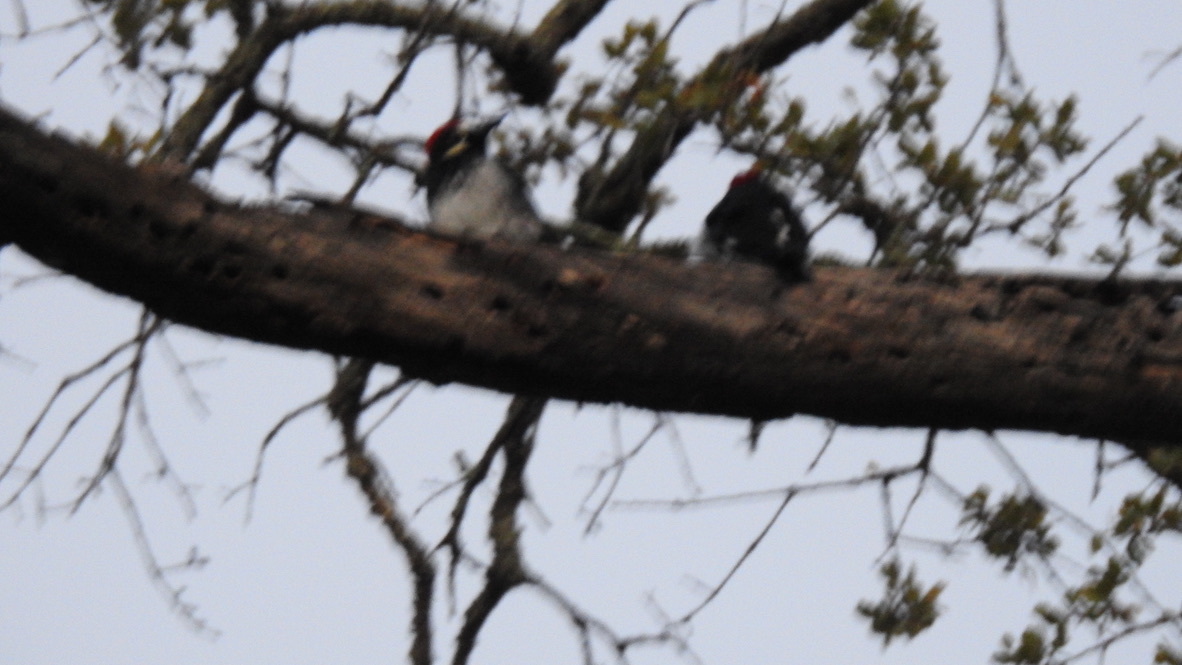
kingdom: Animalia
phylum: Chordata
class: Aves
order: Piciformes
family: Picidae
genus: Melanerpes
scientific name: Melanerpes formicivorus
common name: Acorn woodpecker
